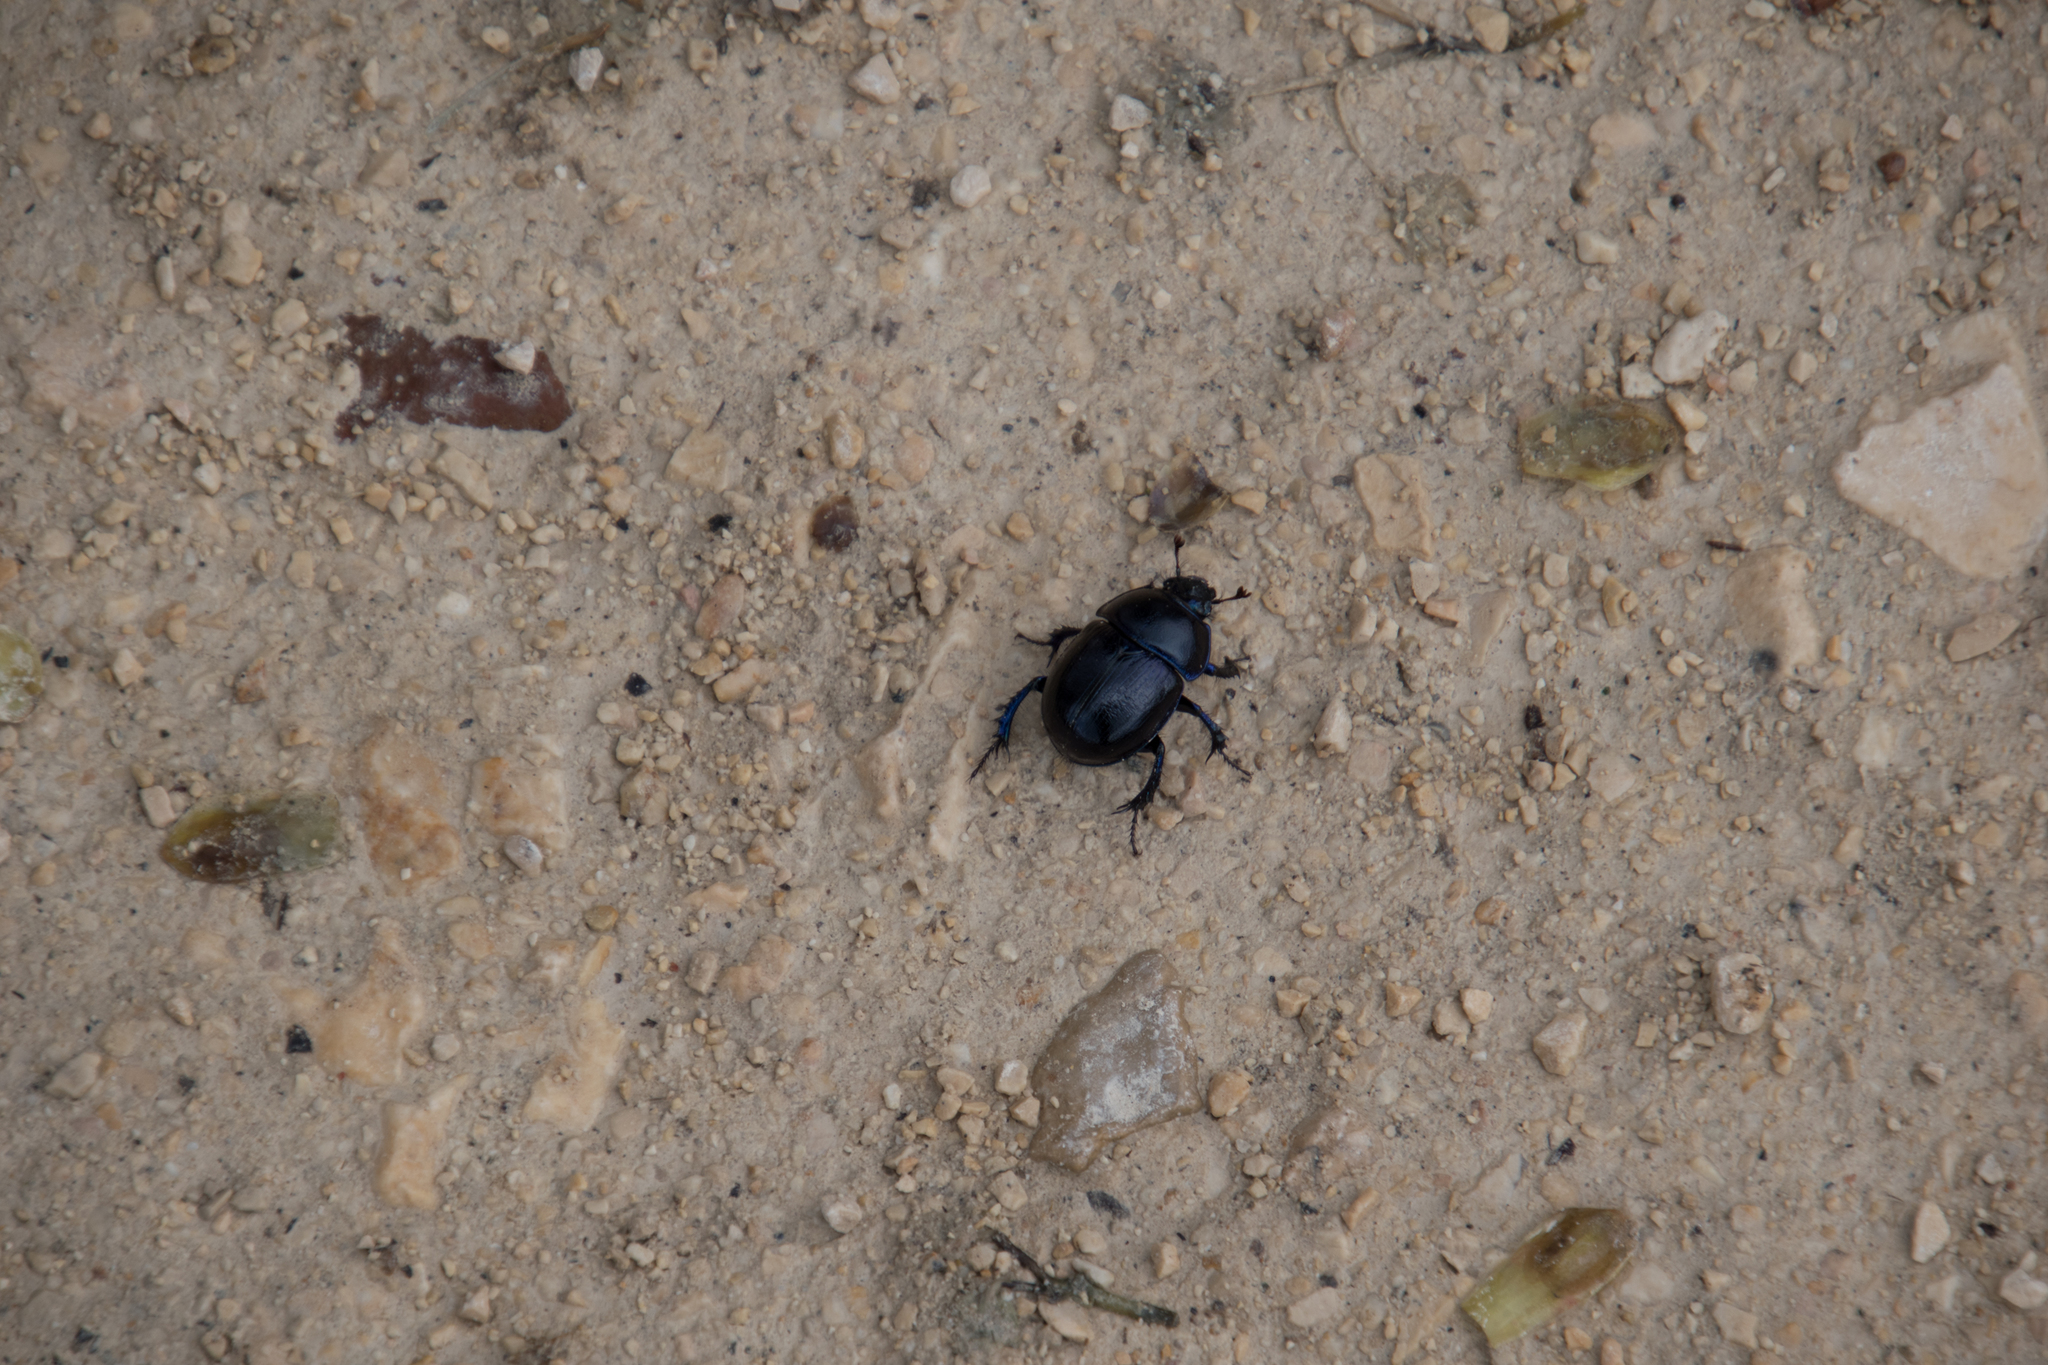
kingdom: Animalia
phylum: Arthropoda
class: Insecta
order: Coleoptera
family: Geotrupidae
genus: Anoplotrupes
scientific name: Anoplotrupes stercorosus
